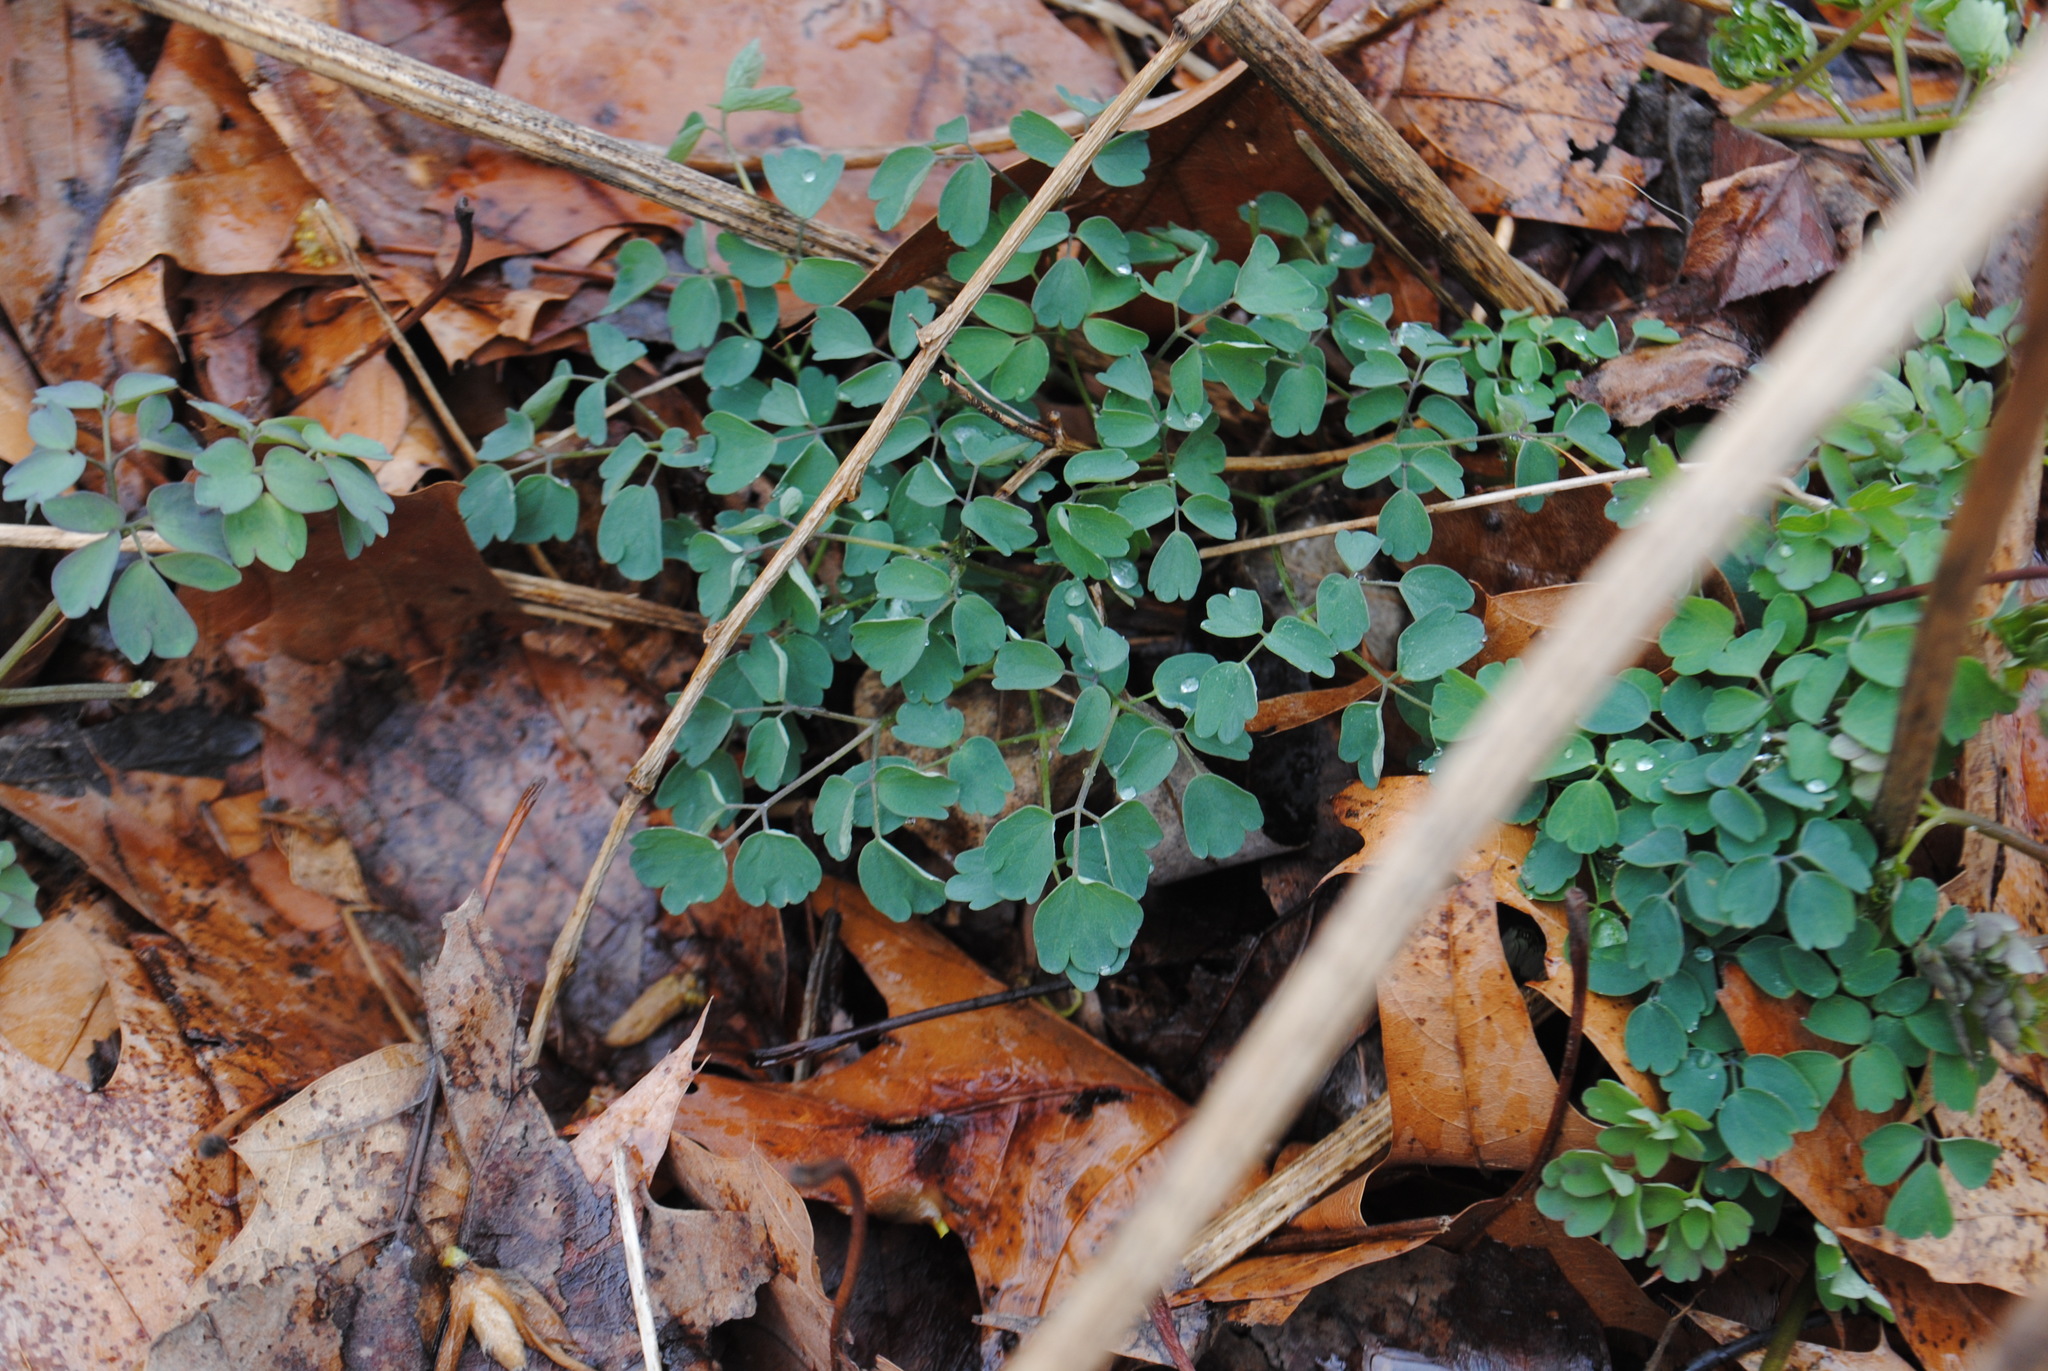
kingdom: Plantae
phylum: Tracheophyta
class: Magnoliopsida
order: Ranunculales
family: Ranunculaceae
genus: Thalictrum
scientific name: Thalictrum dioicum
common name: Early meadow-rue
